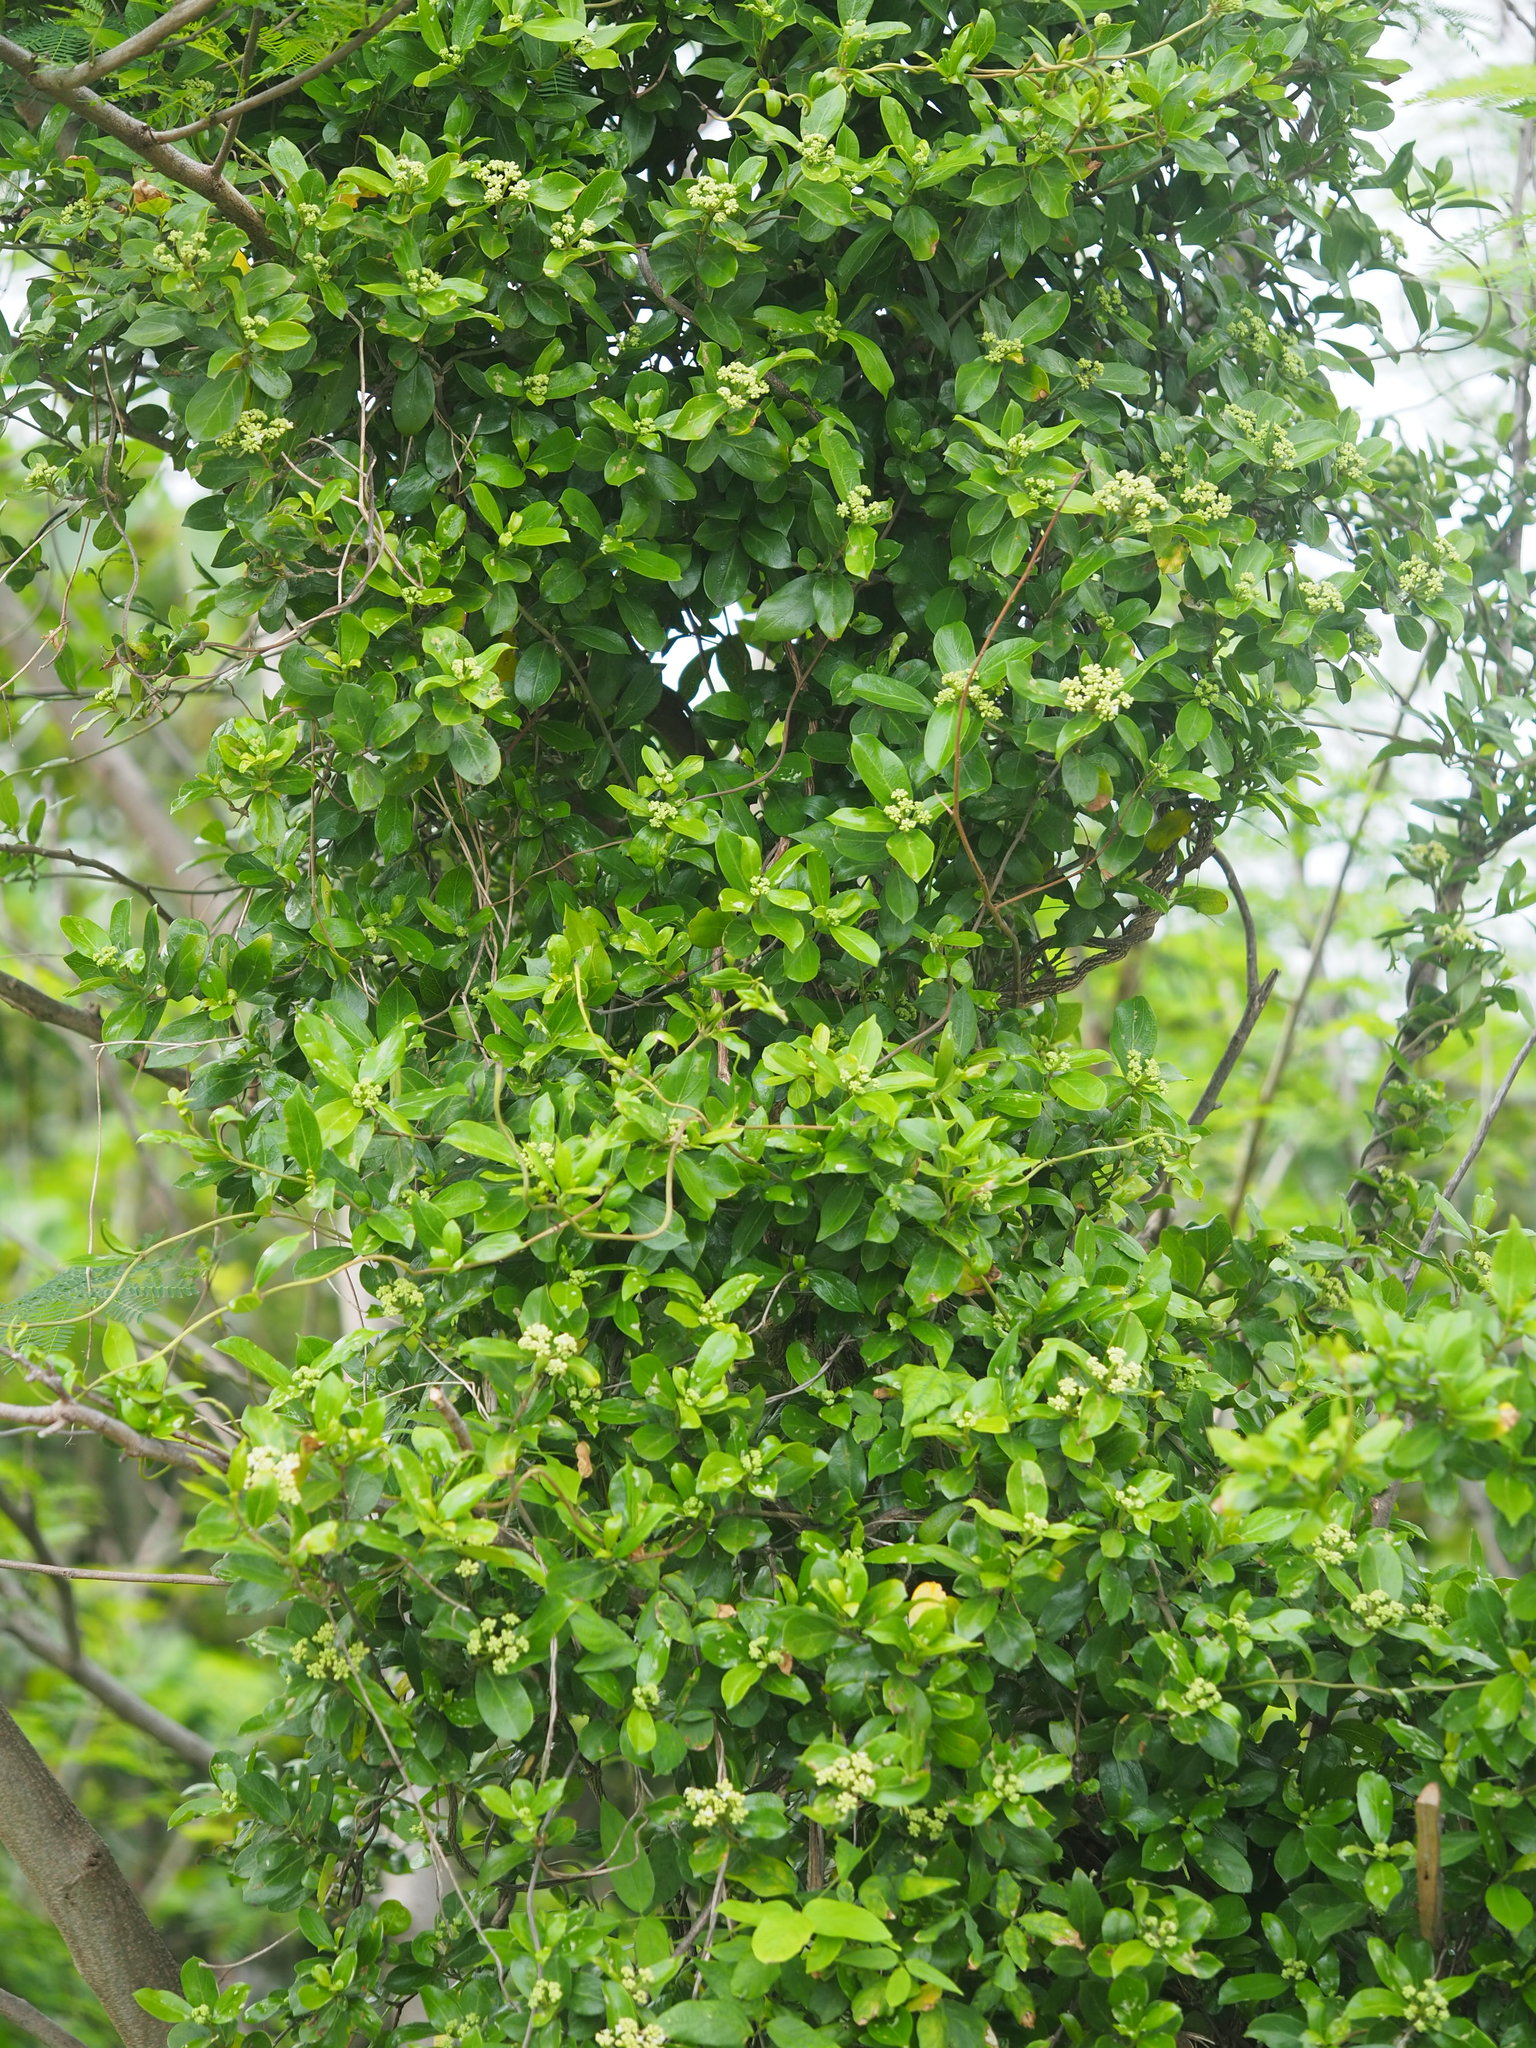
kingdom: Plantae
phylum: Tracheophyta
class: Magnoliopsida
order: Gentianales
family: Rubiaceae
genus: Gynochthodes
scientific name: Gynochthodes parvifolia
